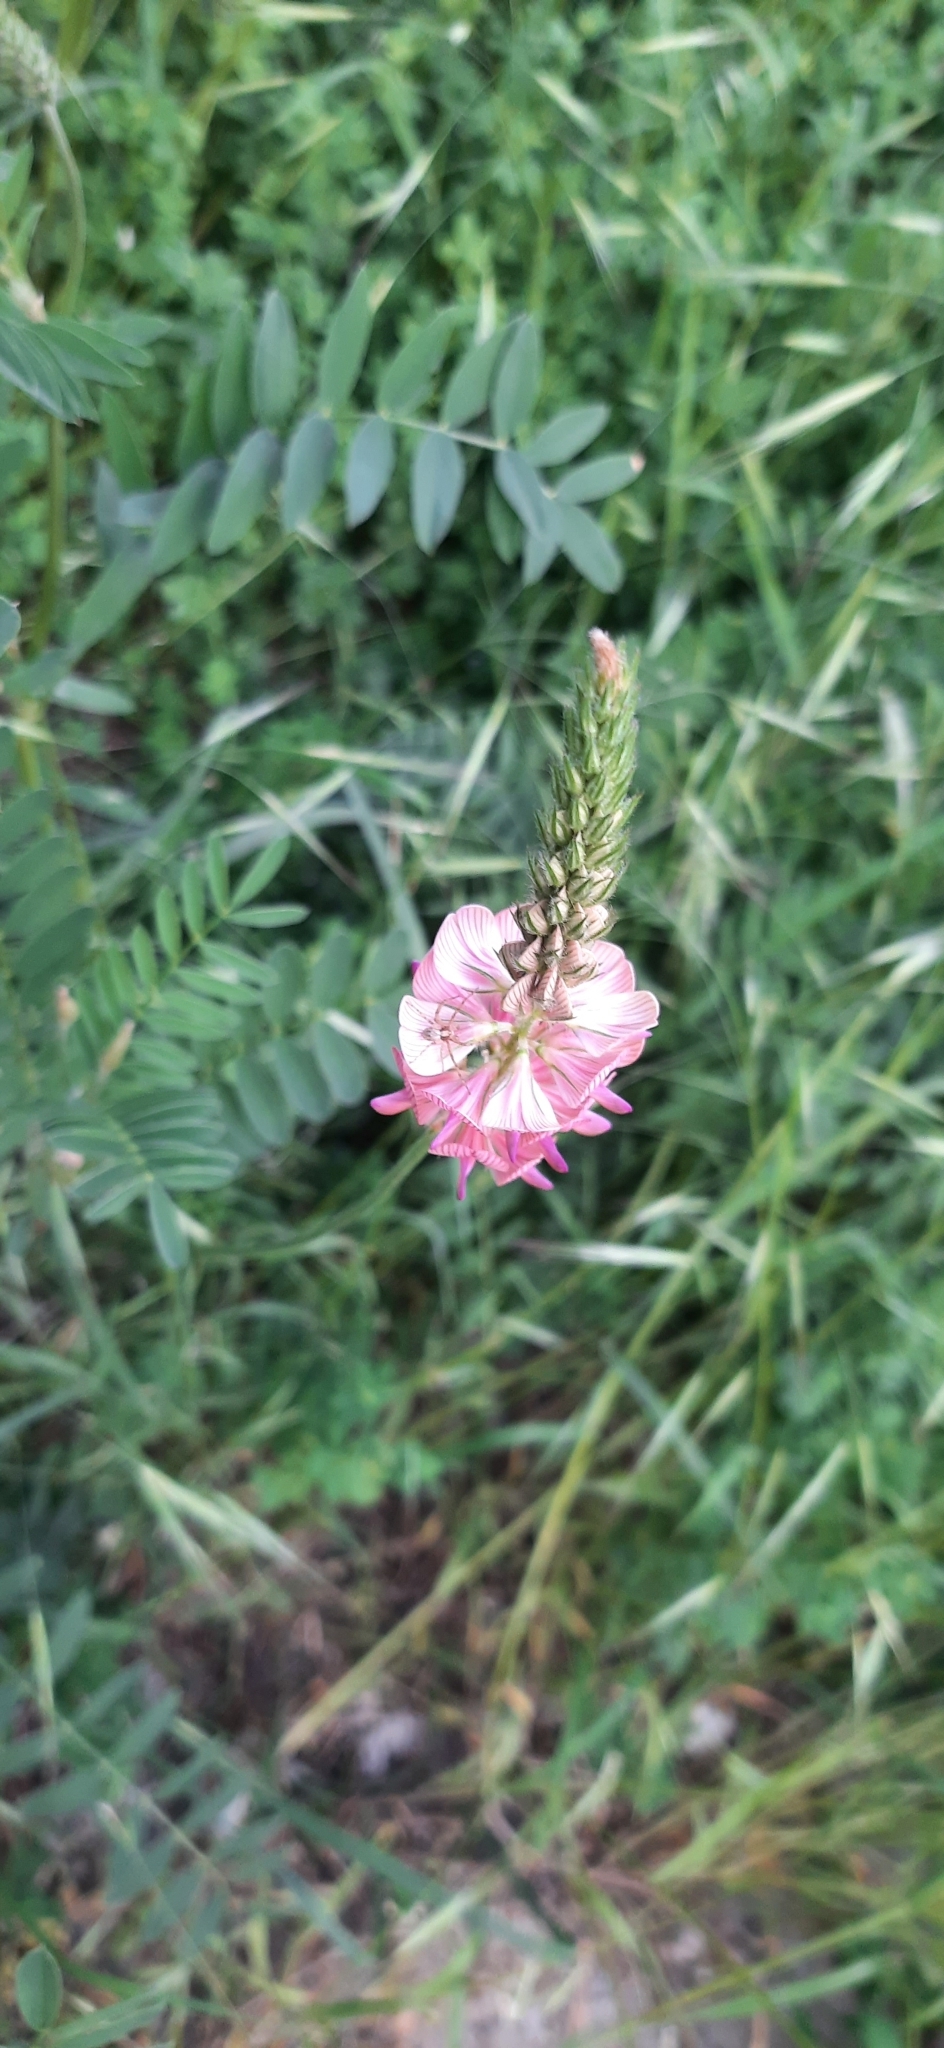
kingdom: Animalia
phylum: Arthropoda
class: Arachnida
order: Araneae
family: Philodromidae
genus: Philodromus
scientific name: Philodromus
